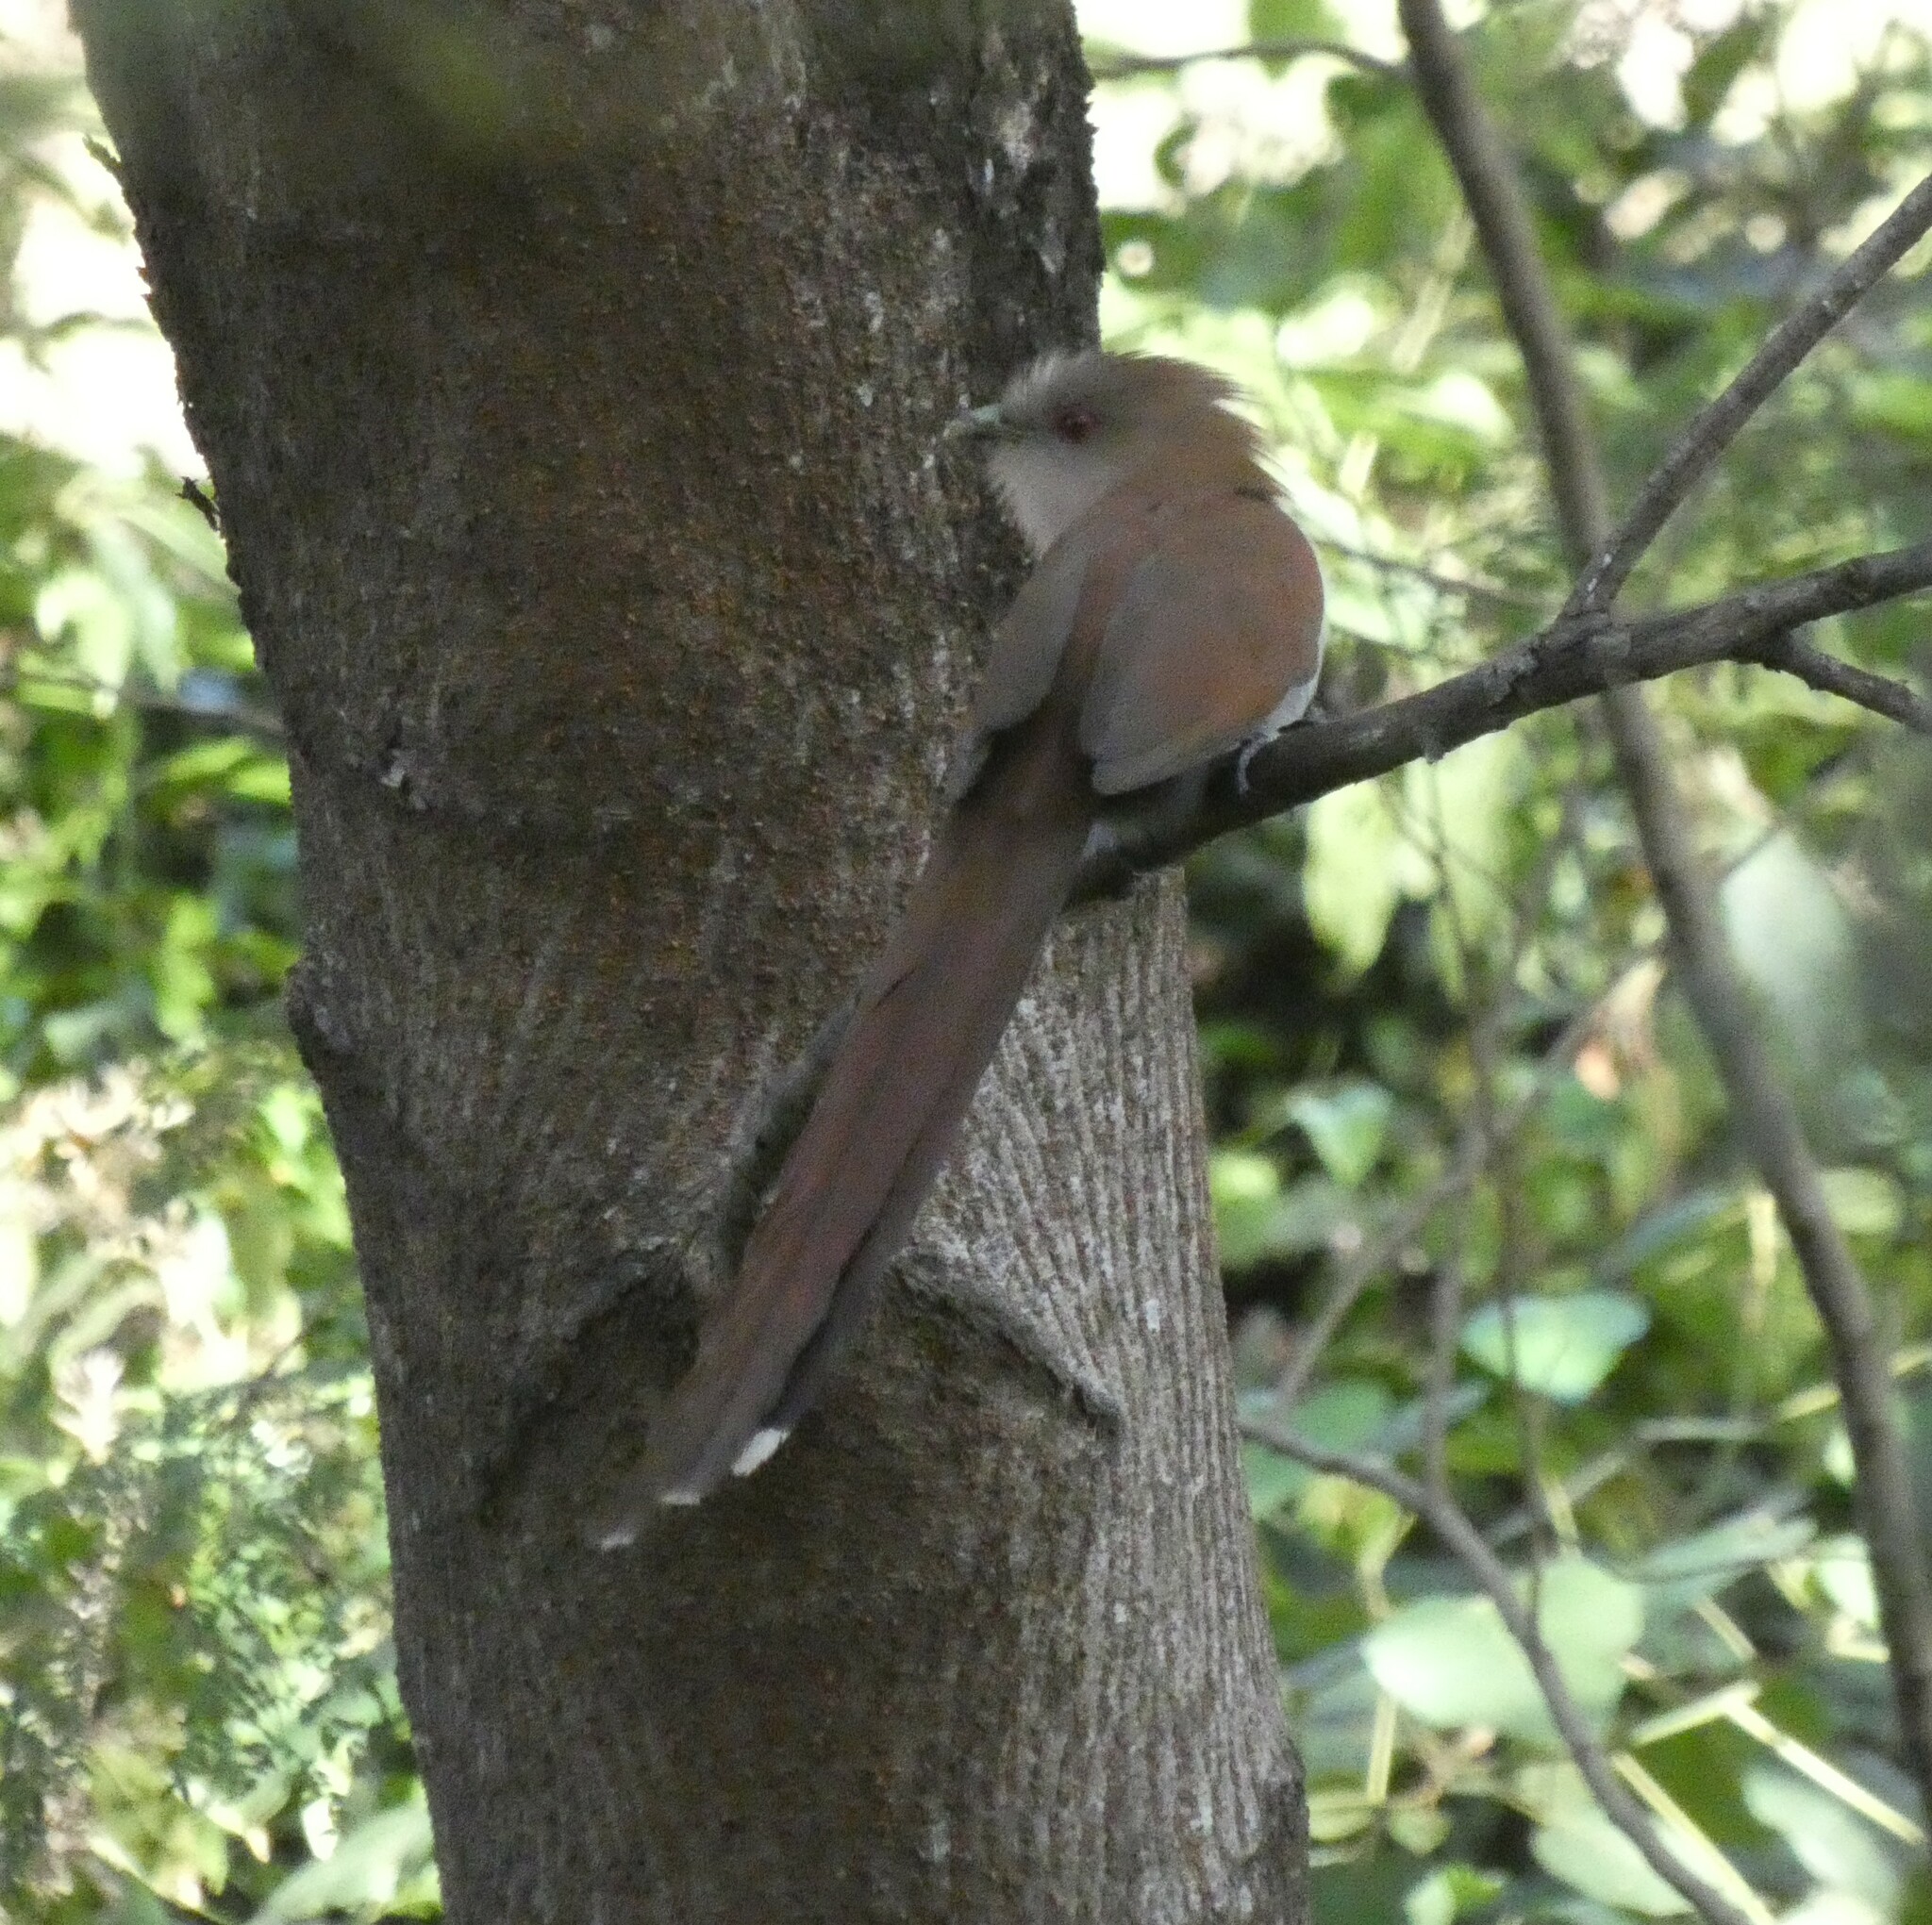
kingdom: Animalia
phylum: Chordata
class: Aves
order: Cuculiformes
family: Cuculidae
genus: Piaya
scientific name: Piaya cayana
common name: Squirrel cuckoo
